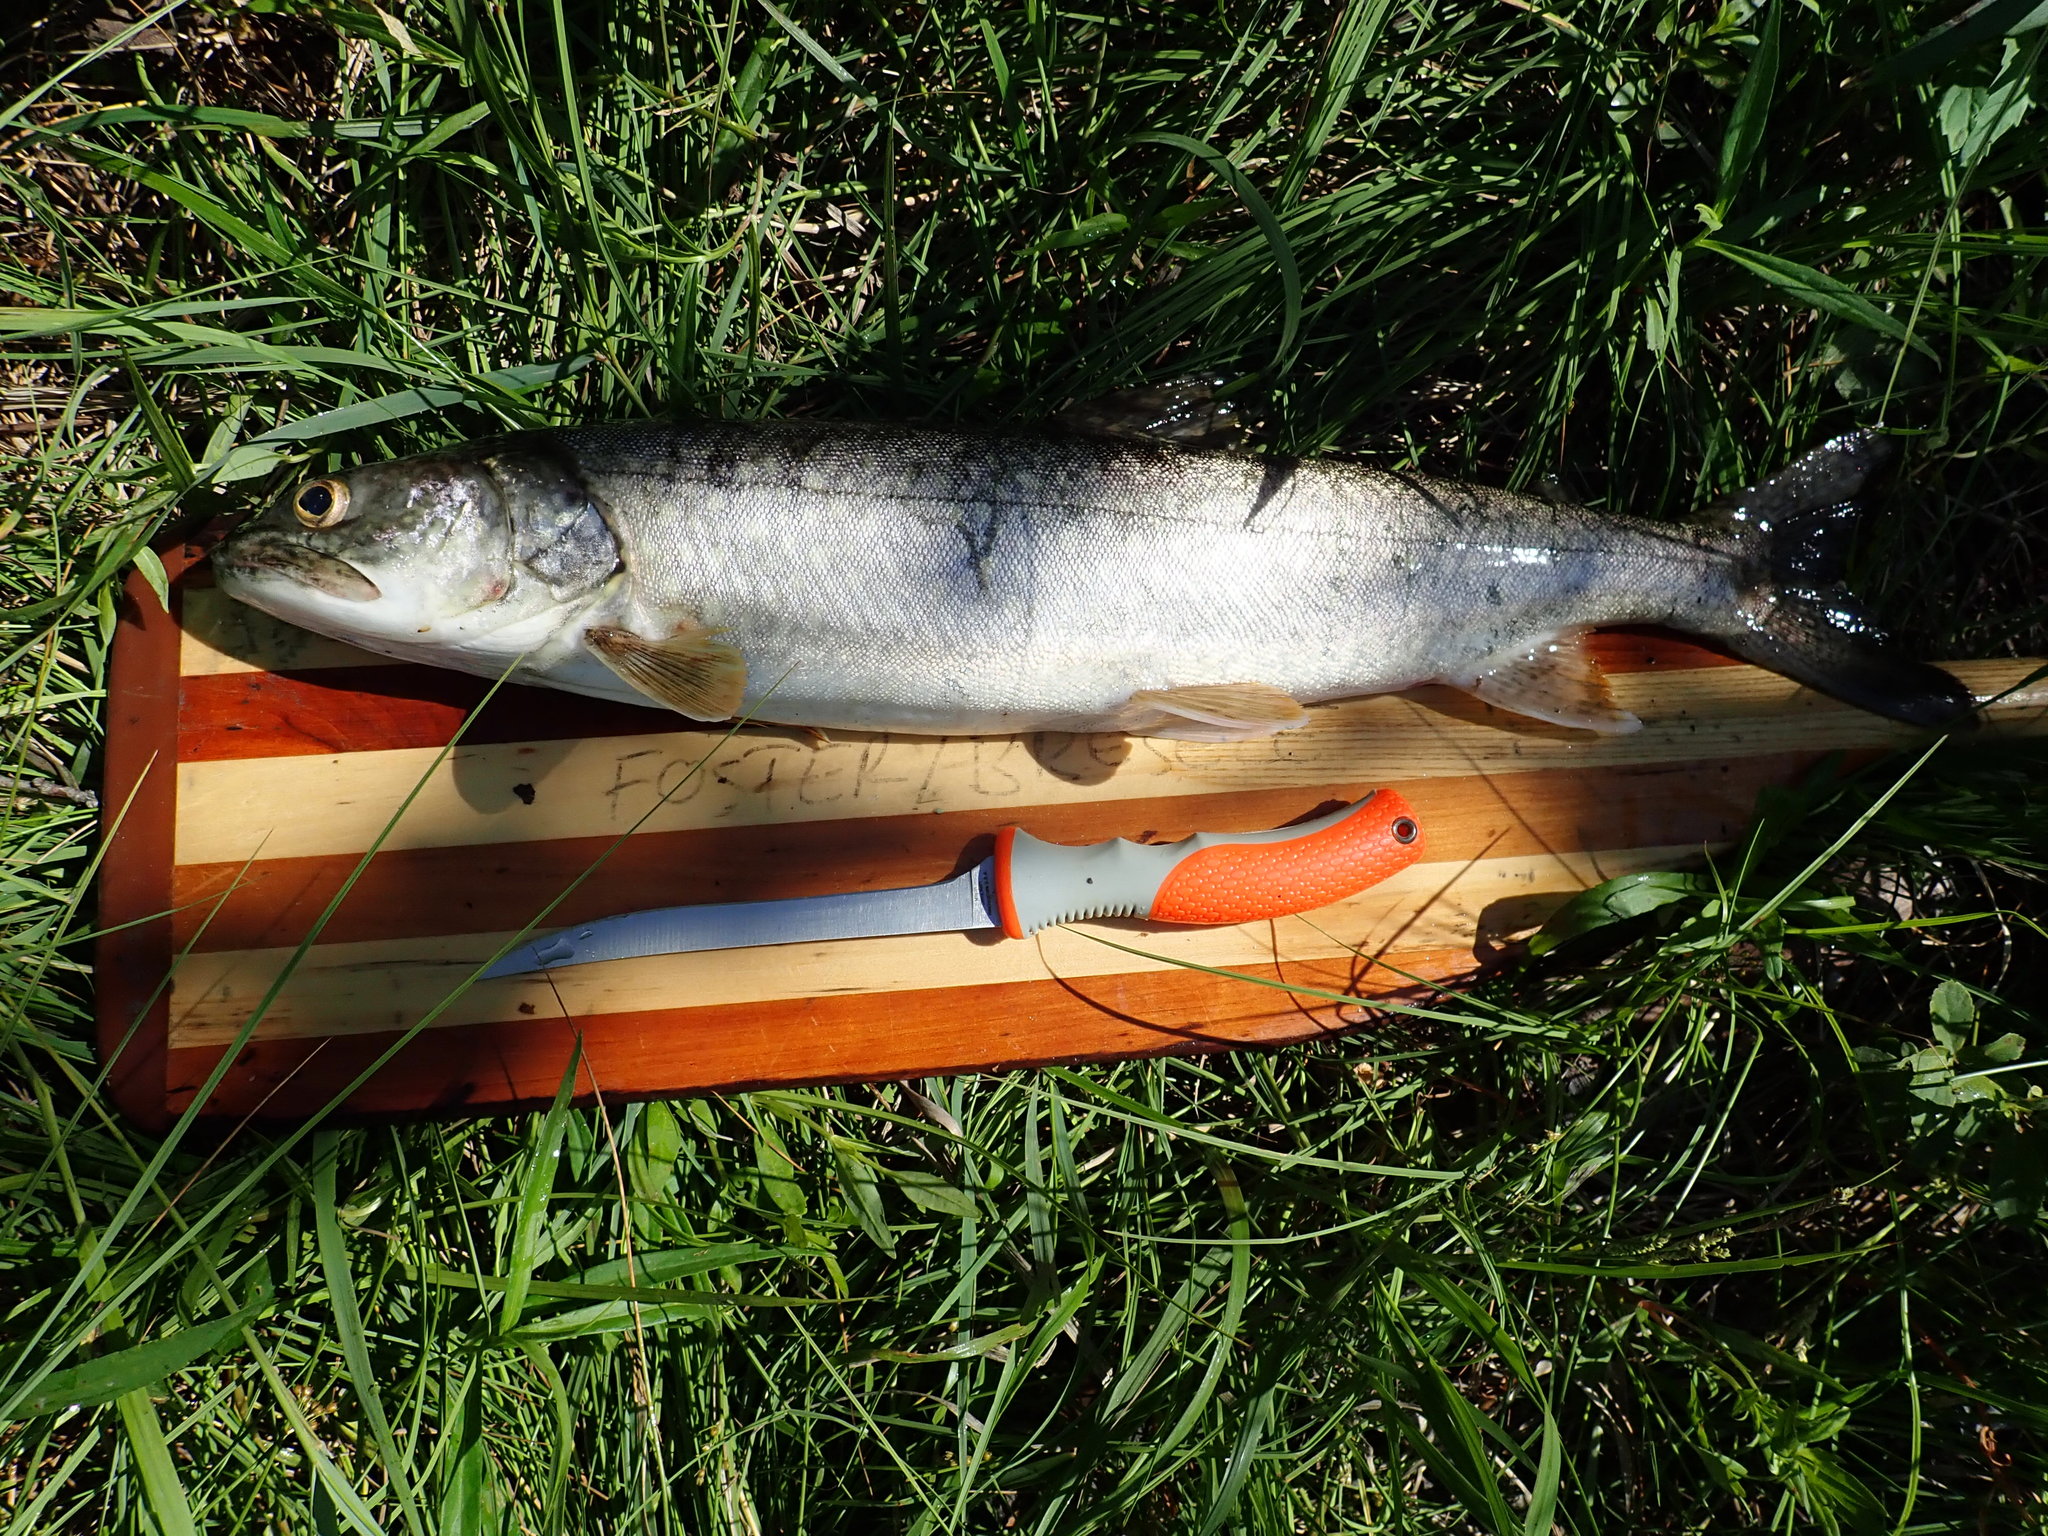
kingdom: Animalia
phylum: Chordata
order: Salmoniformes
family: Salmonidae
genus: Salvelinus
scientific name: Salvelinus namaycush
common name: American lake charr
